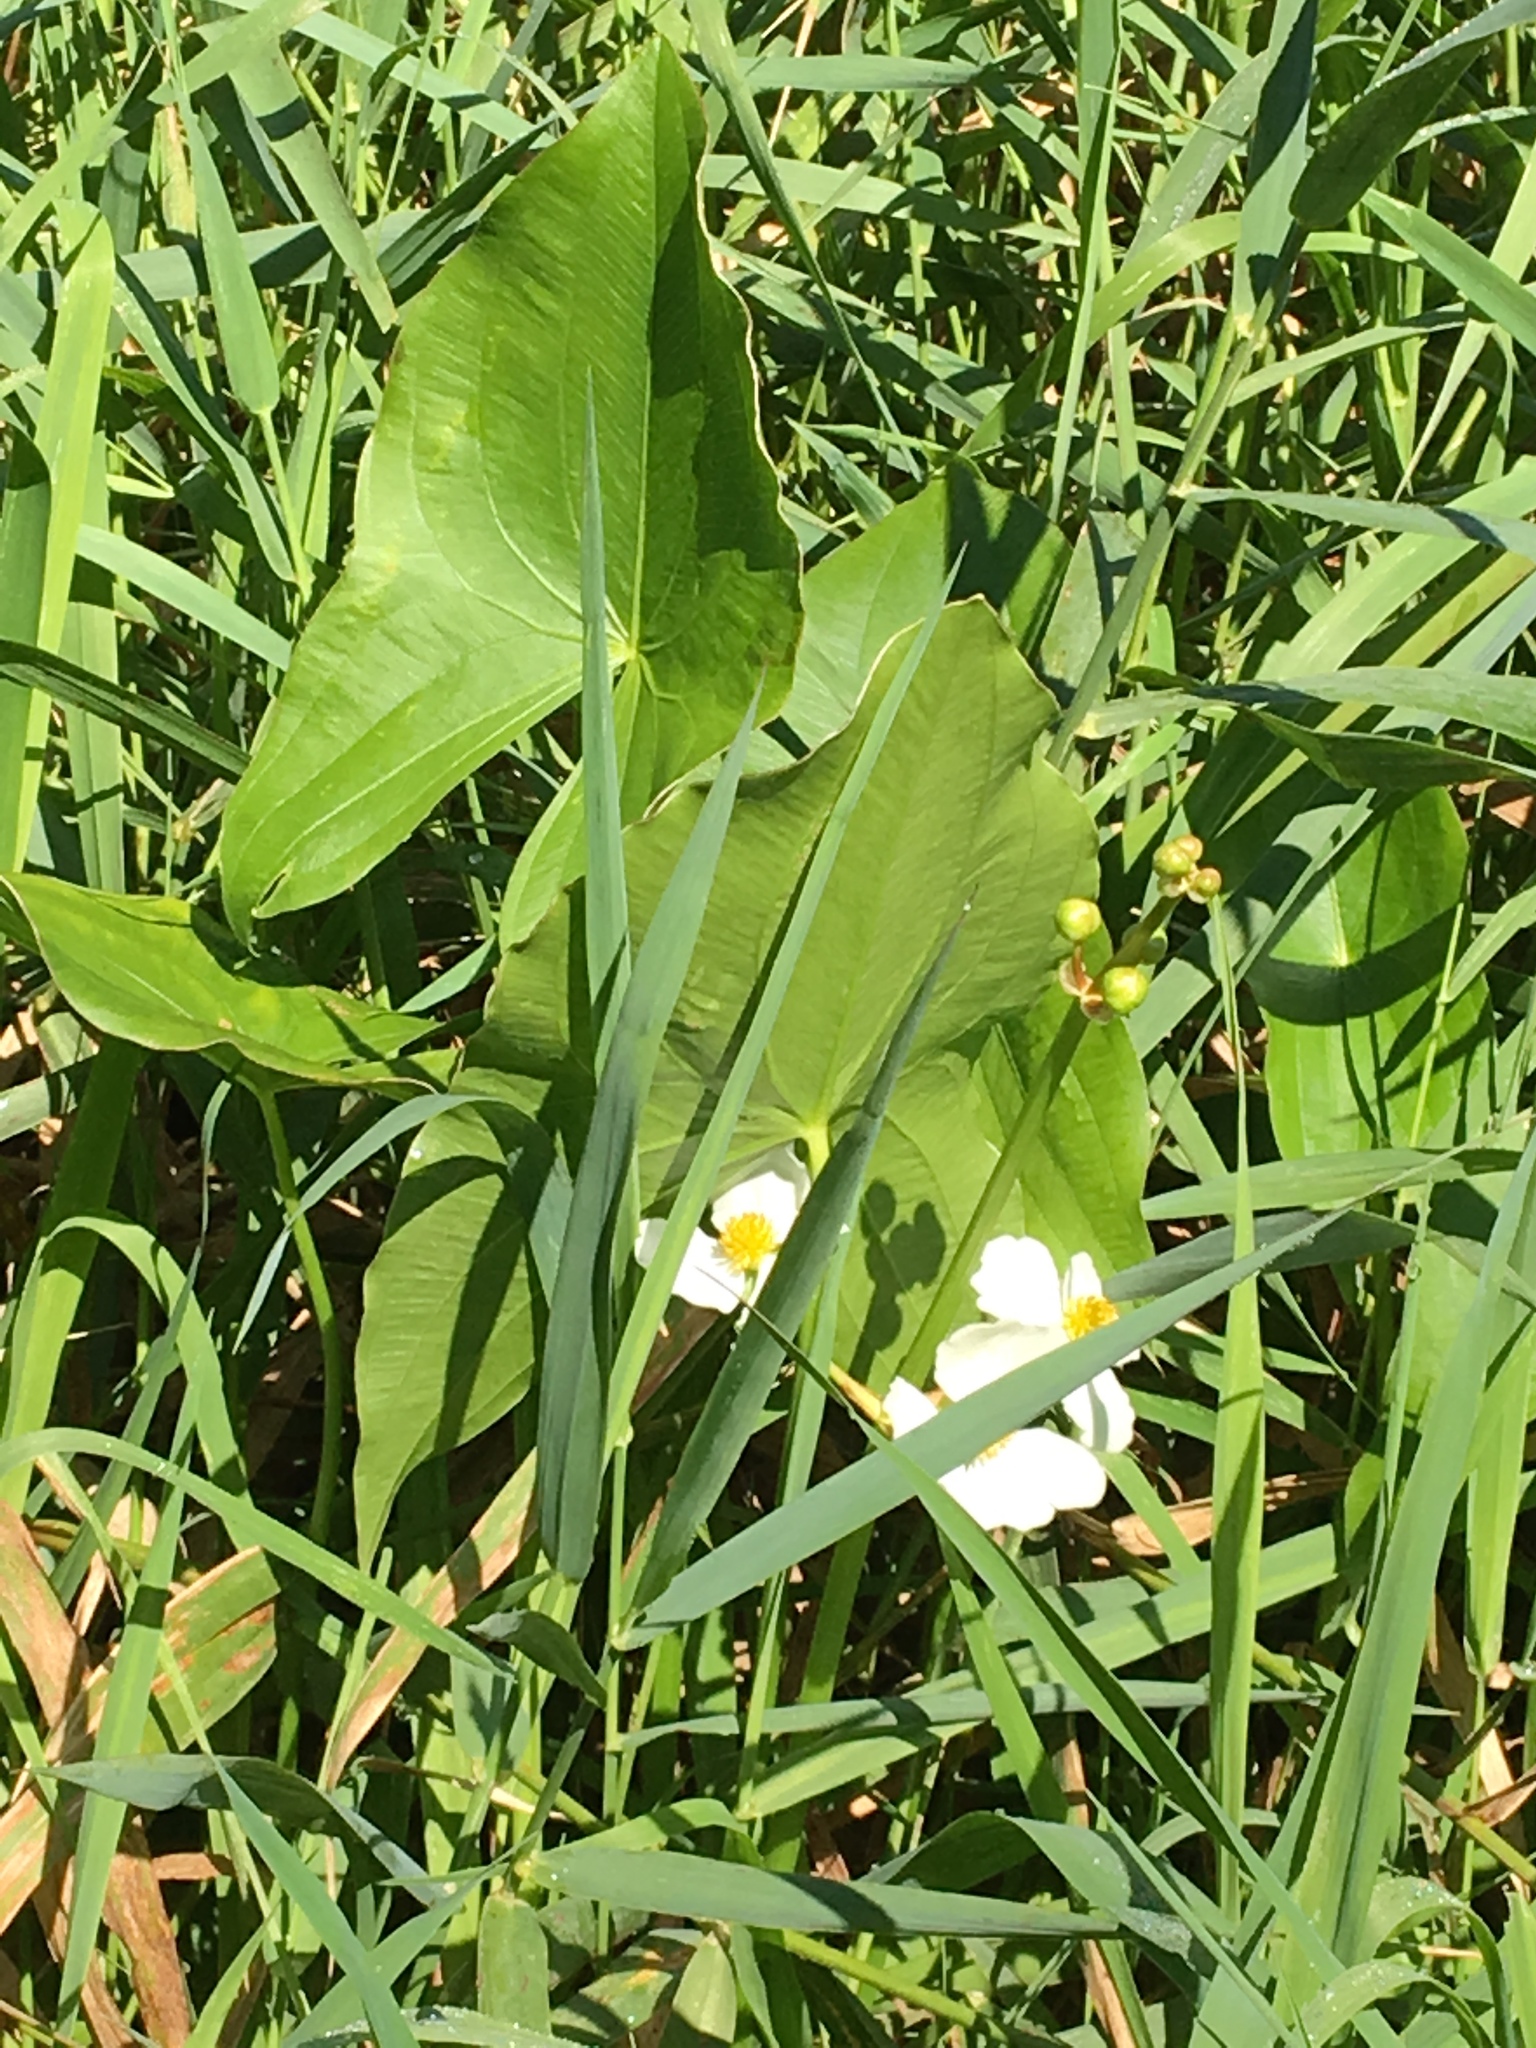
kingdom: Plantae
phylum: Tracheophyta
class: Liliopsida
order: Alismatales
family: Alismataceae
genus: Sagittaria
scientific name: Sagittaria latifolia
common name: Duck-potato
